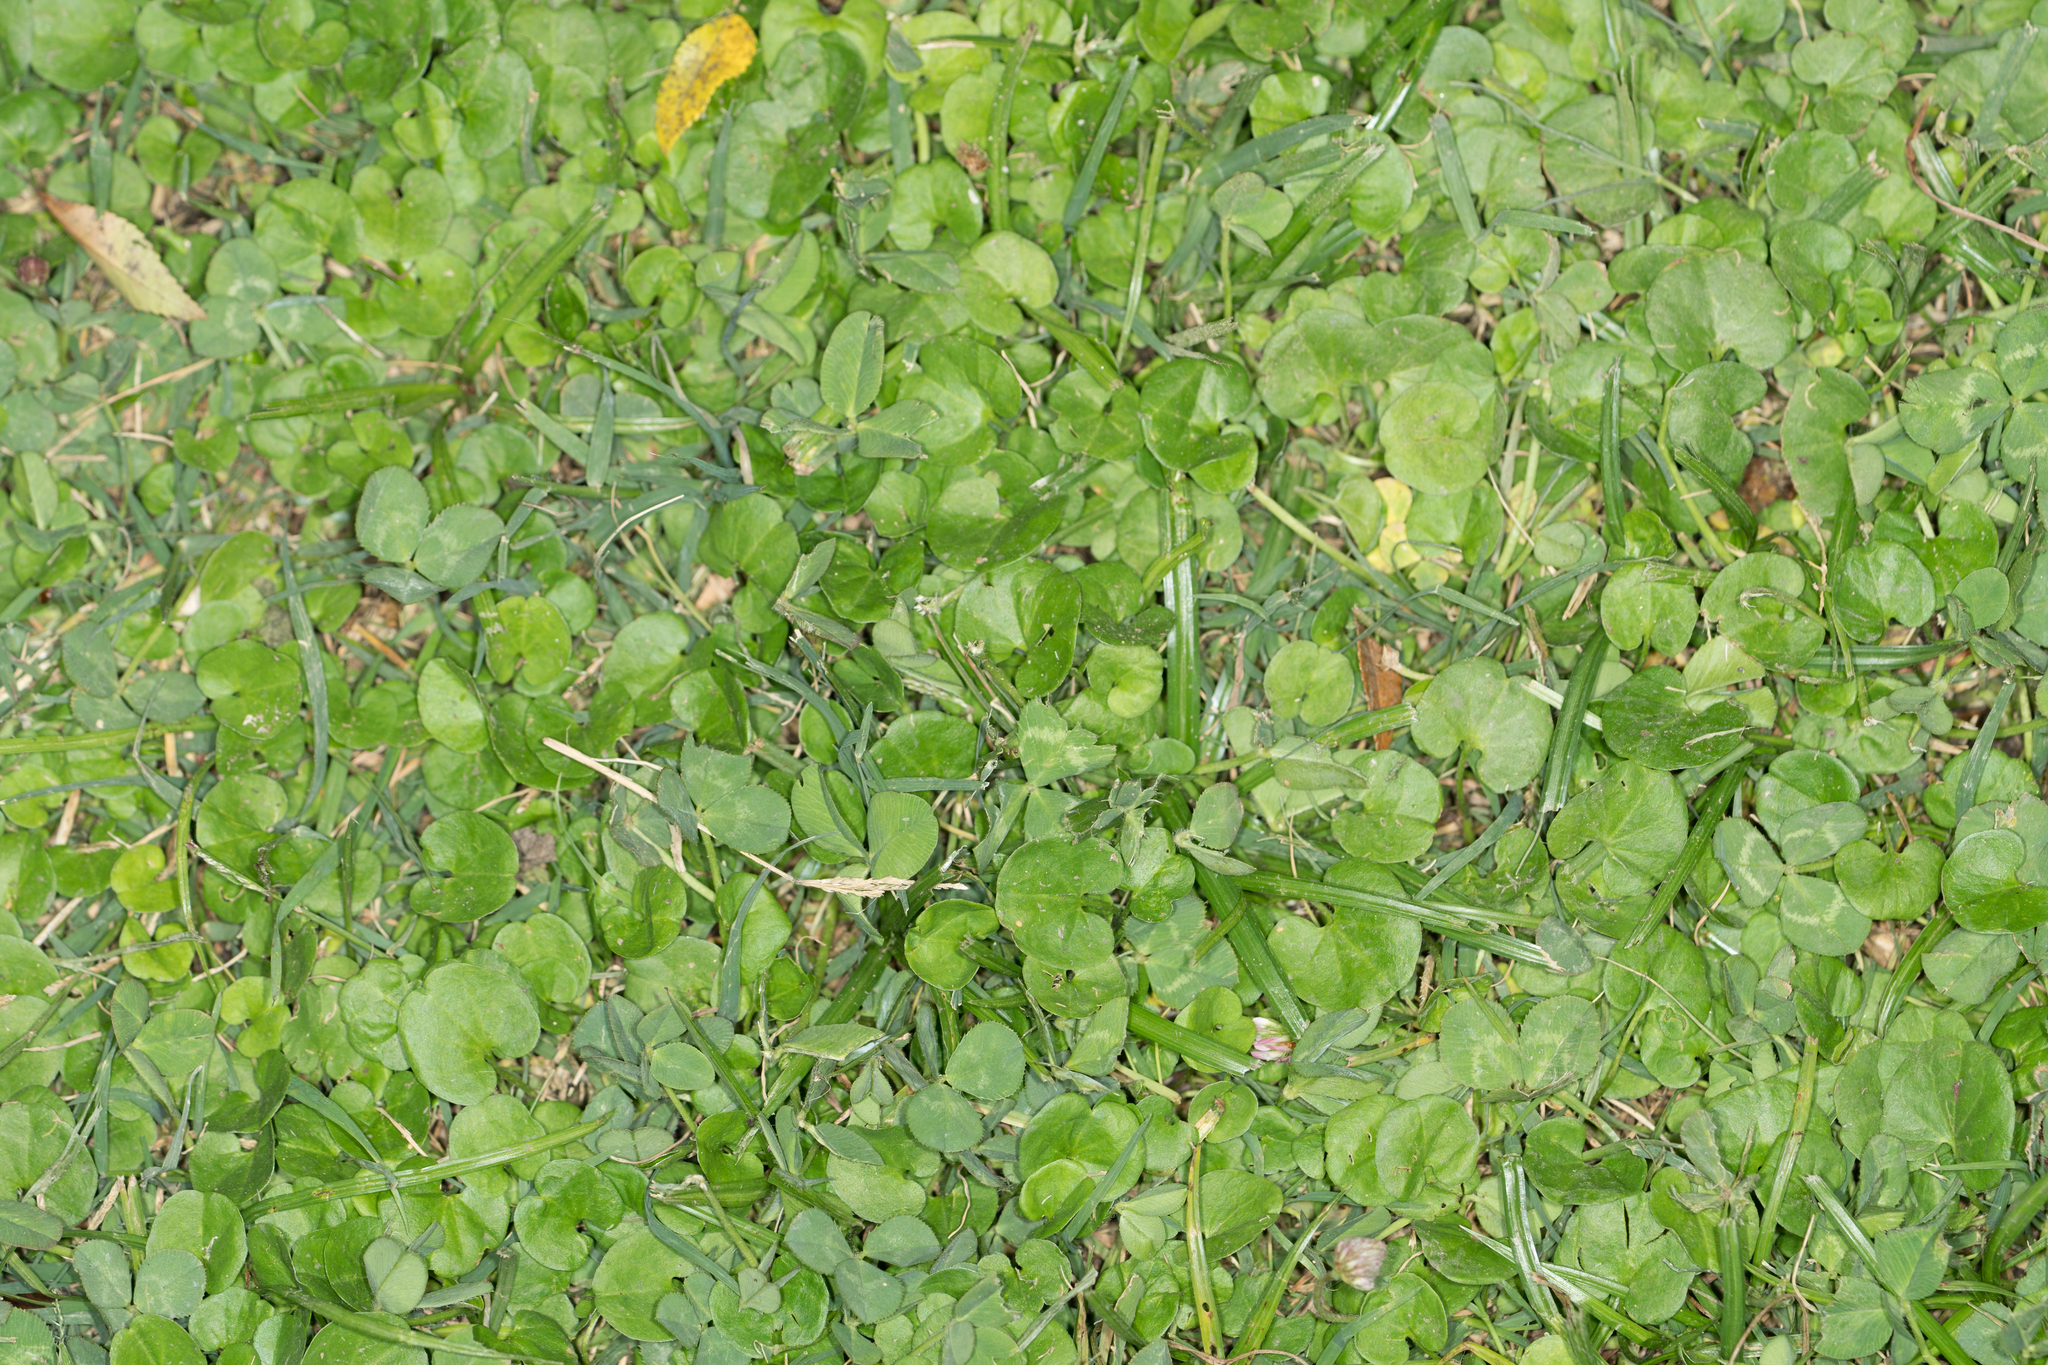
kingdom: Plantae
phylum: Tracheophyta
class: Magnoliopsida
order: Solanales
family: Convolvulaceae
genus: Dichondra
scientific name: Dichondra micrantha
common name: Kidneyweed
